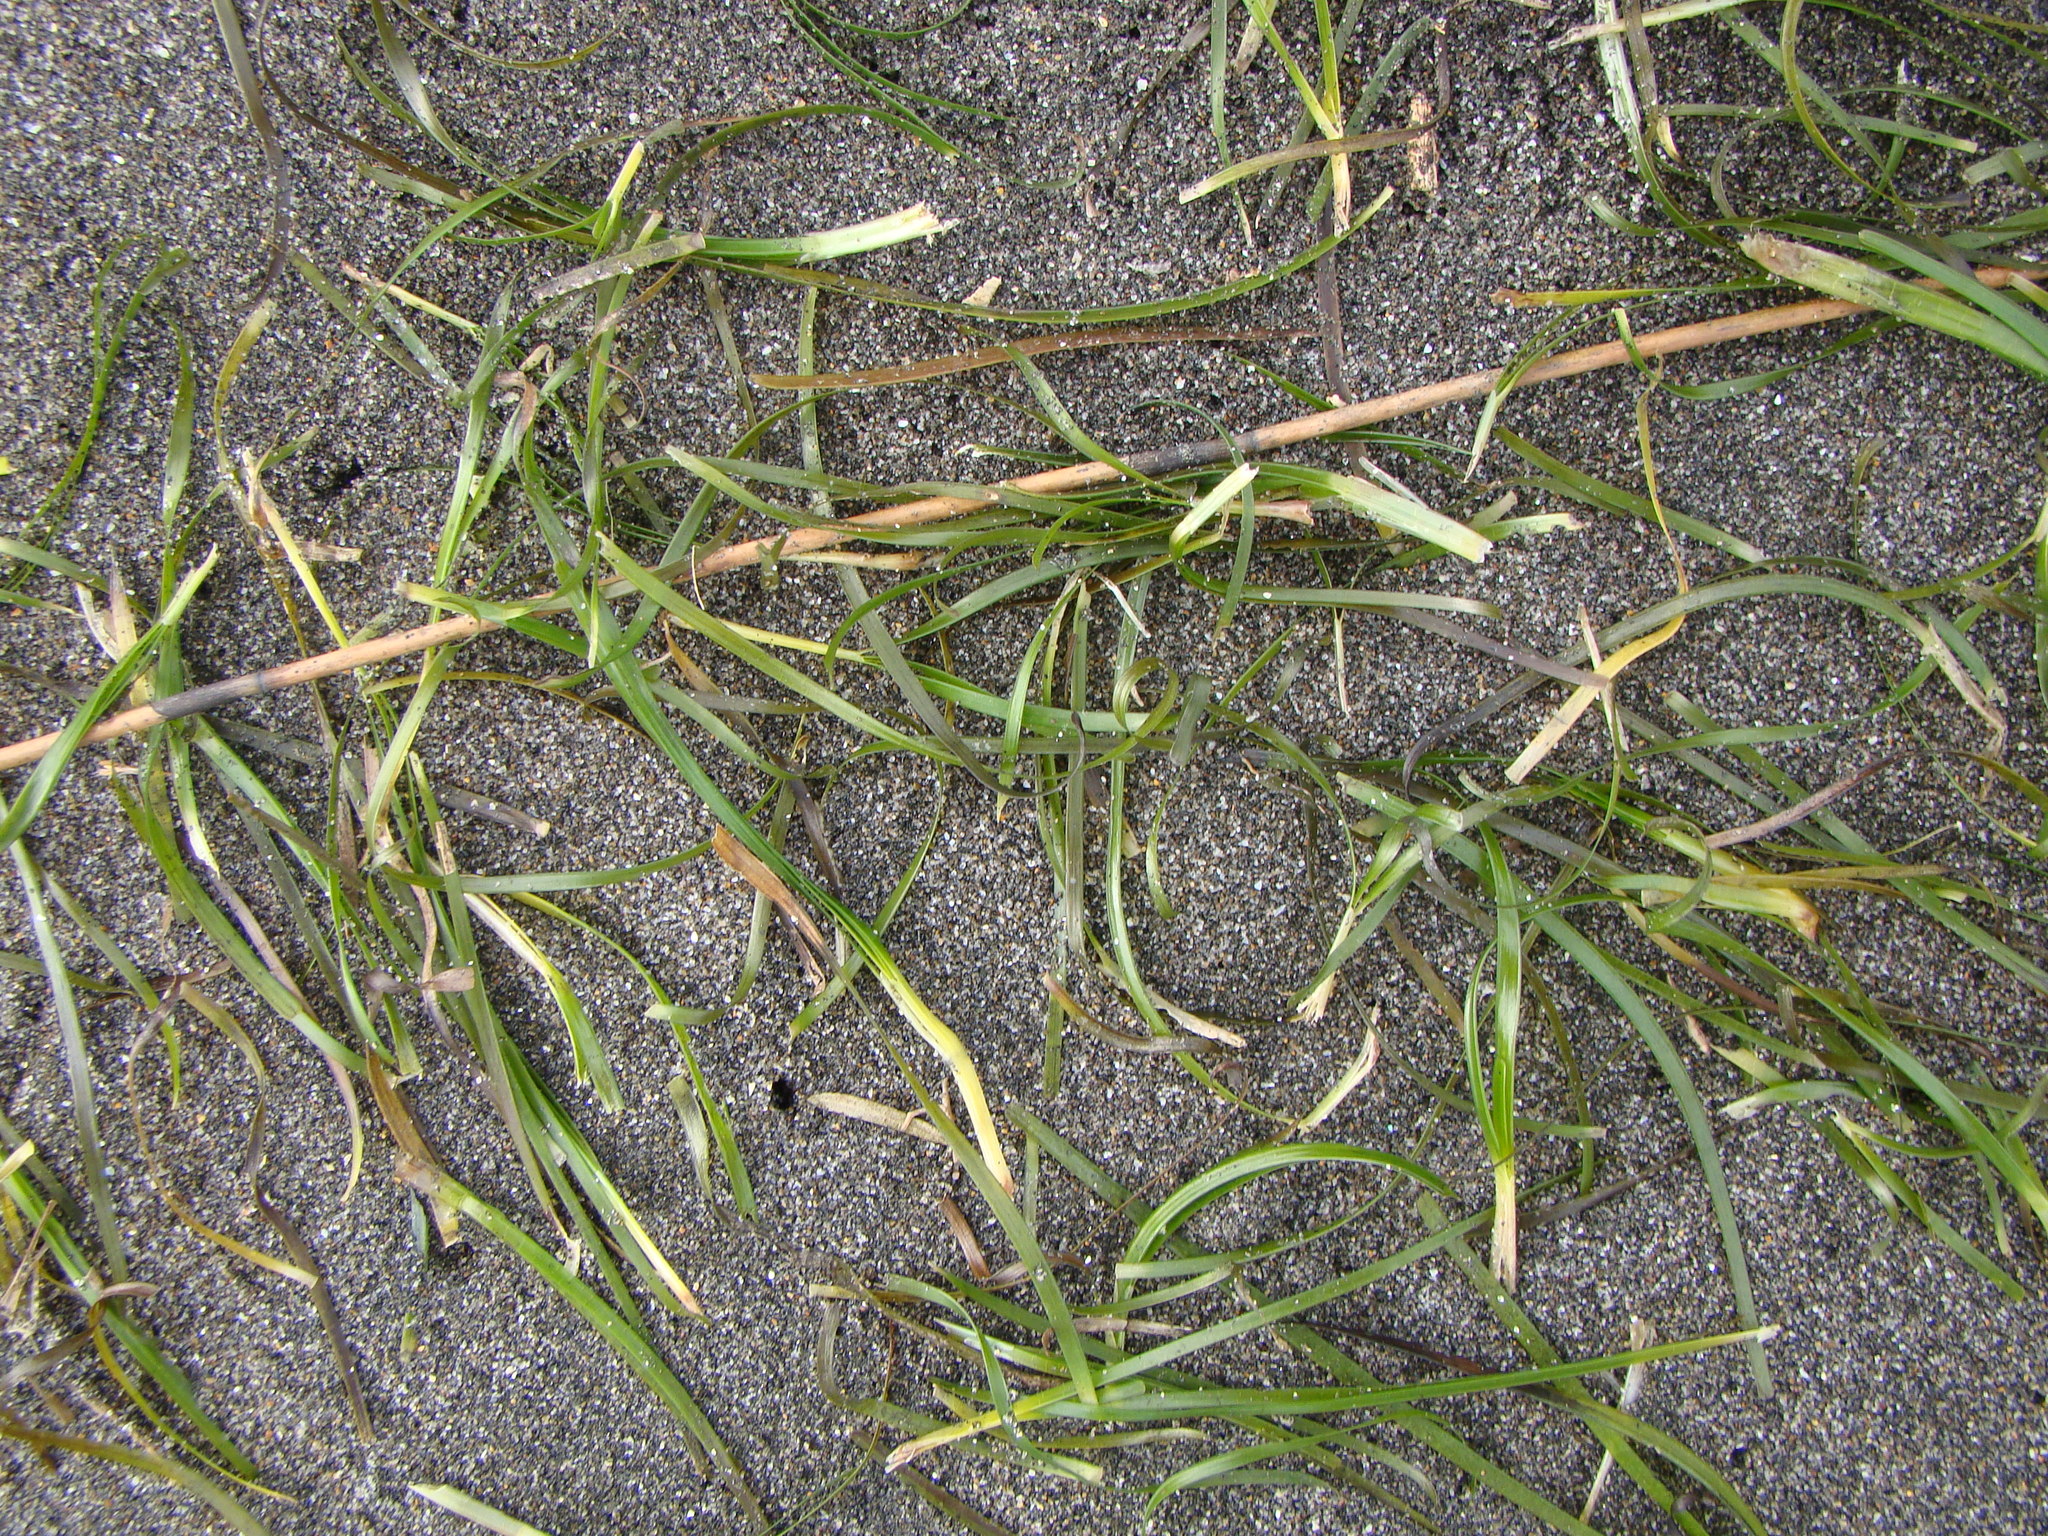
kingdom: Plantae
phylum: Tracheophyta
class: Liliopsida
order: Alismatales
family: Zosteraceae
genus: Zostera
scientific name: Zostera novazelandica
